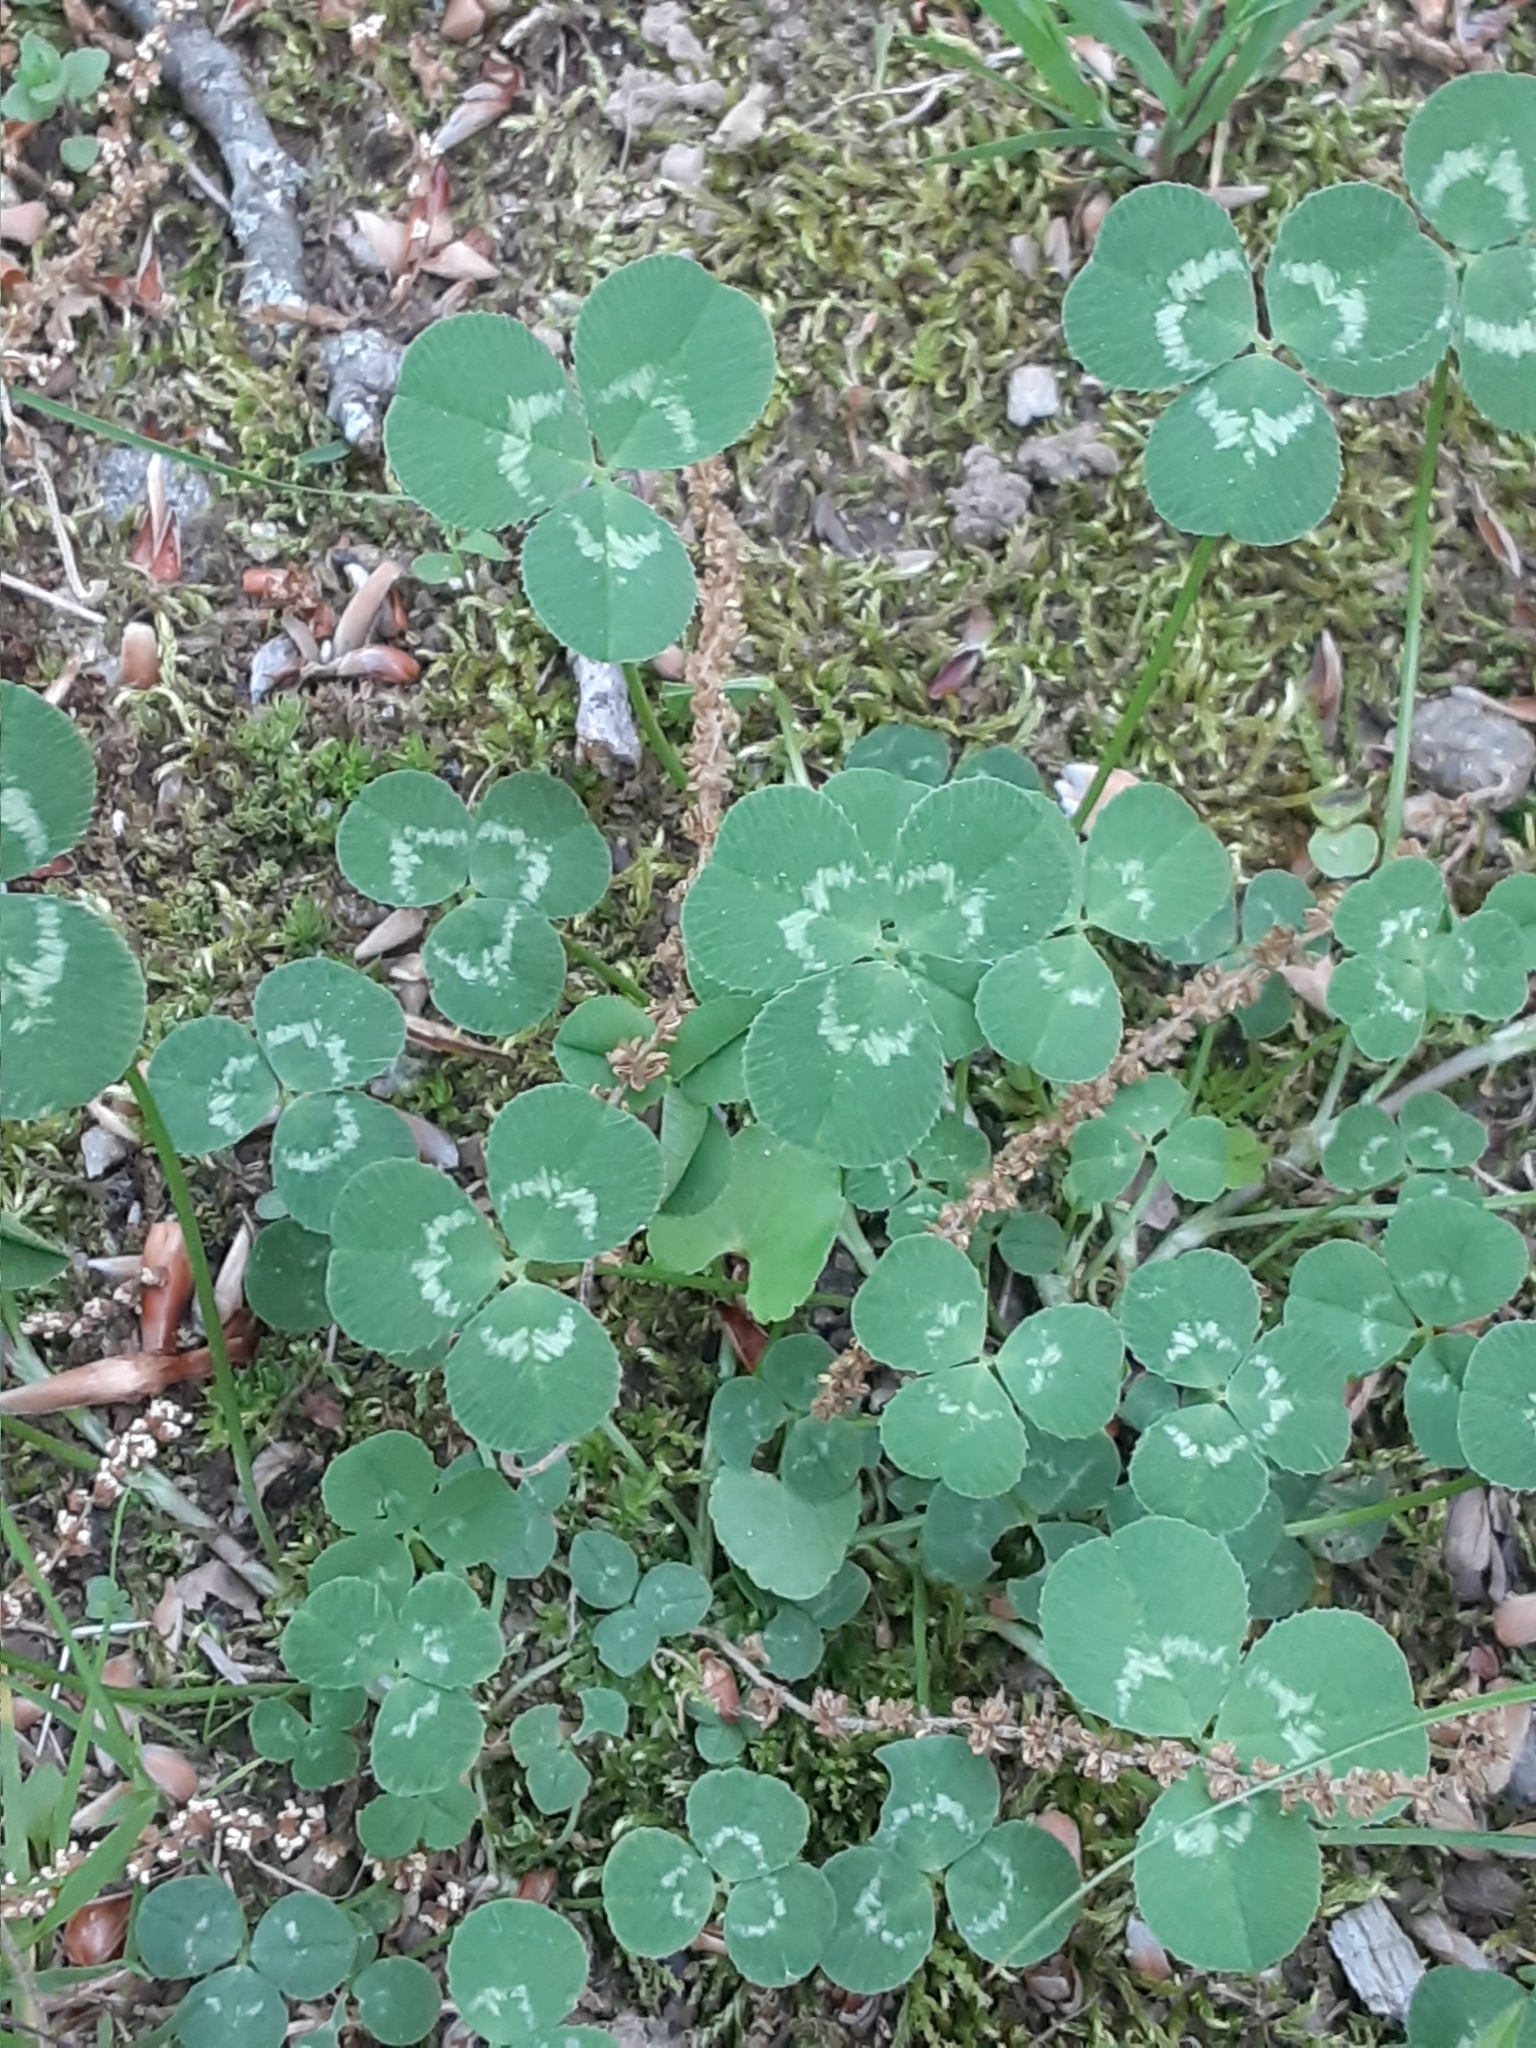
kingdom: Plantae
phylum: Tracheophyta
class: Magnoliopsida
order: Fabales
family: Fabaceae
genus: Trifolium
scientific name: Trifolium repens
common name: White clover
